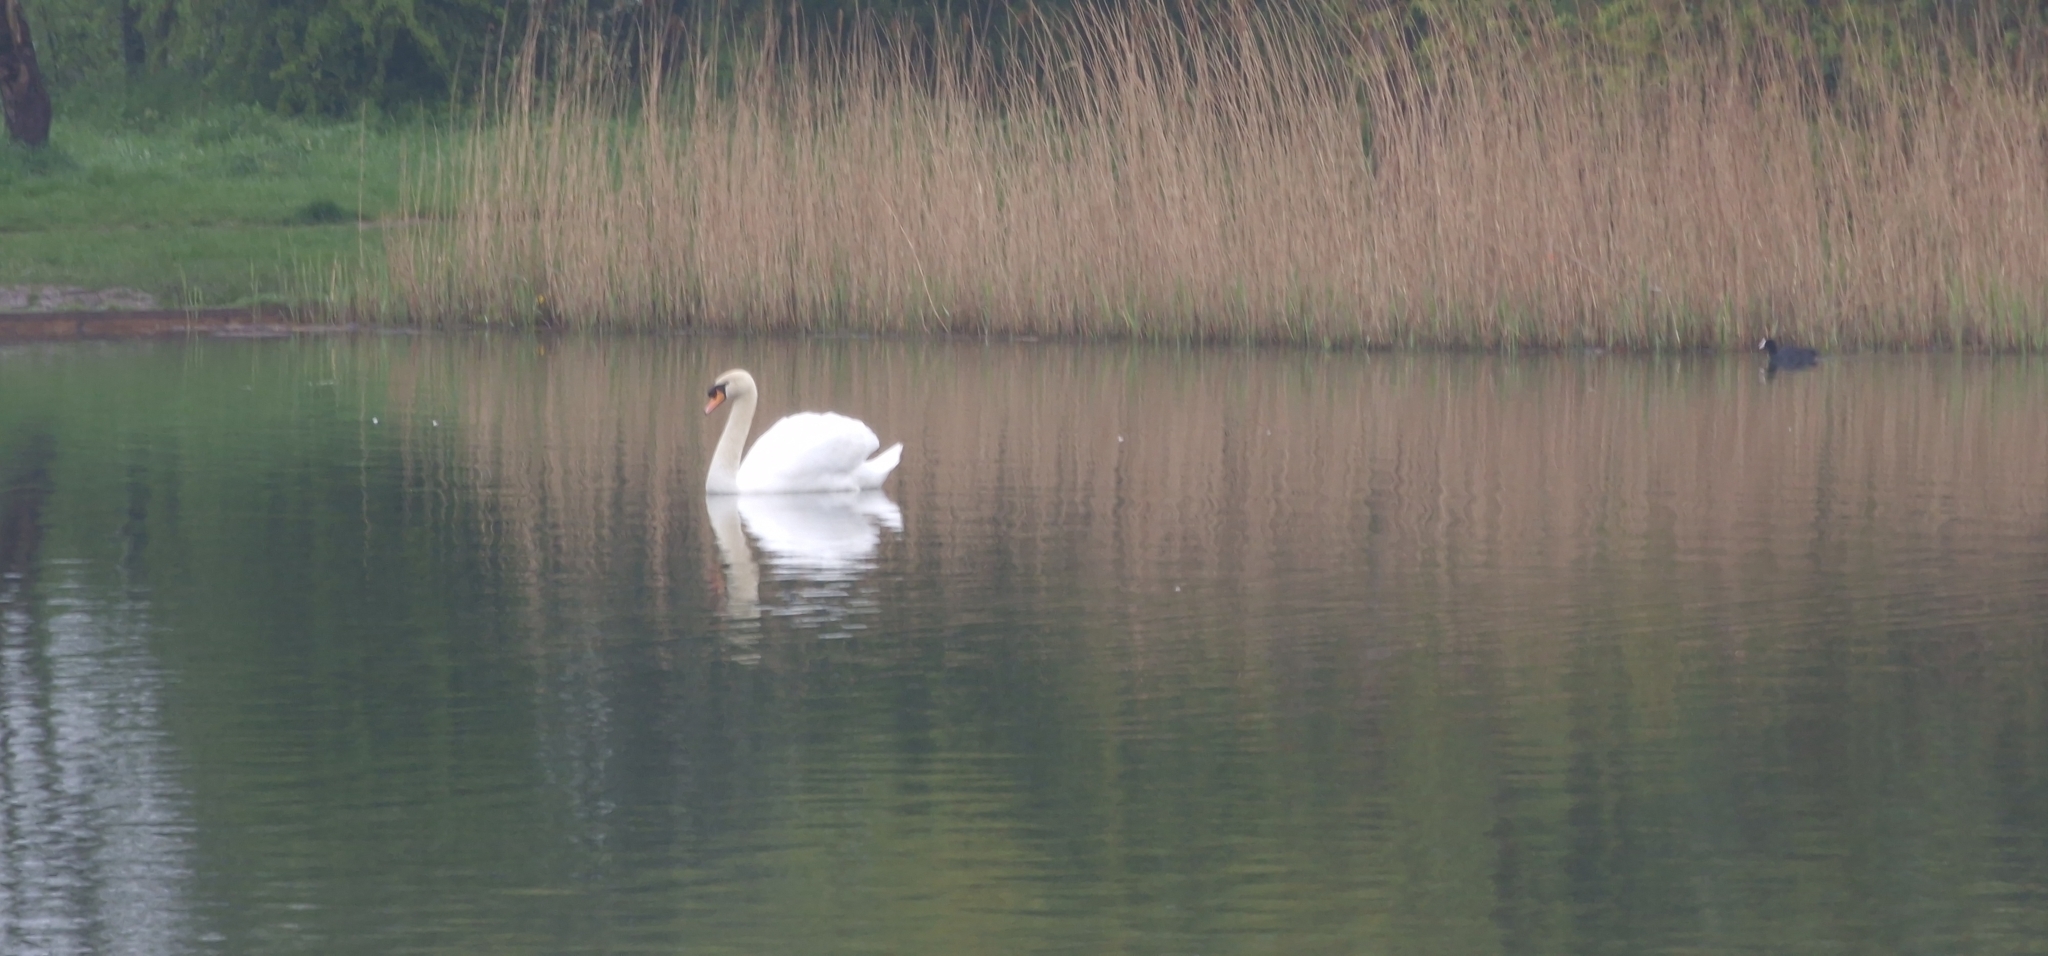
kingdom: Animalia
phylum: Chordata
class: Aves
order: Anseriformes
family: Anatidae
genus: Cygnus
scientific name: Cygnus olor
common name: Mute swan
